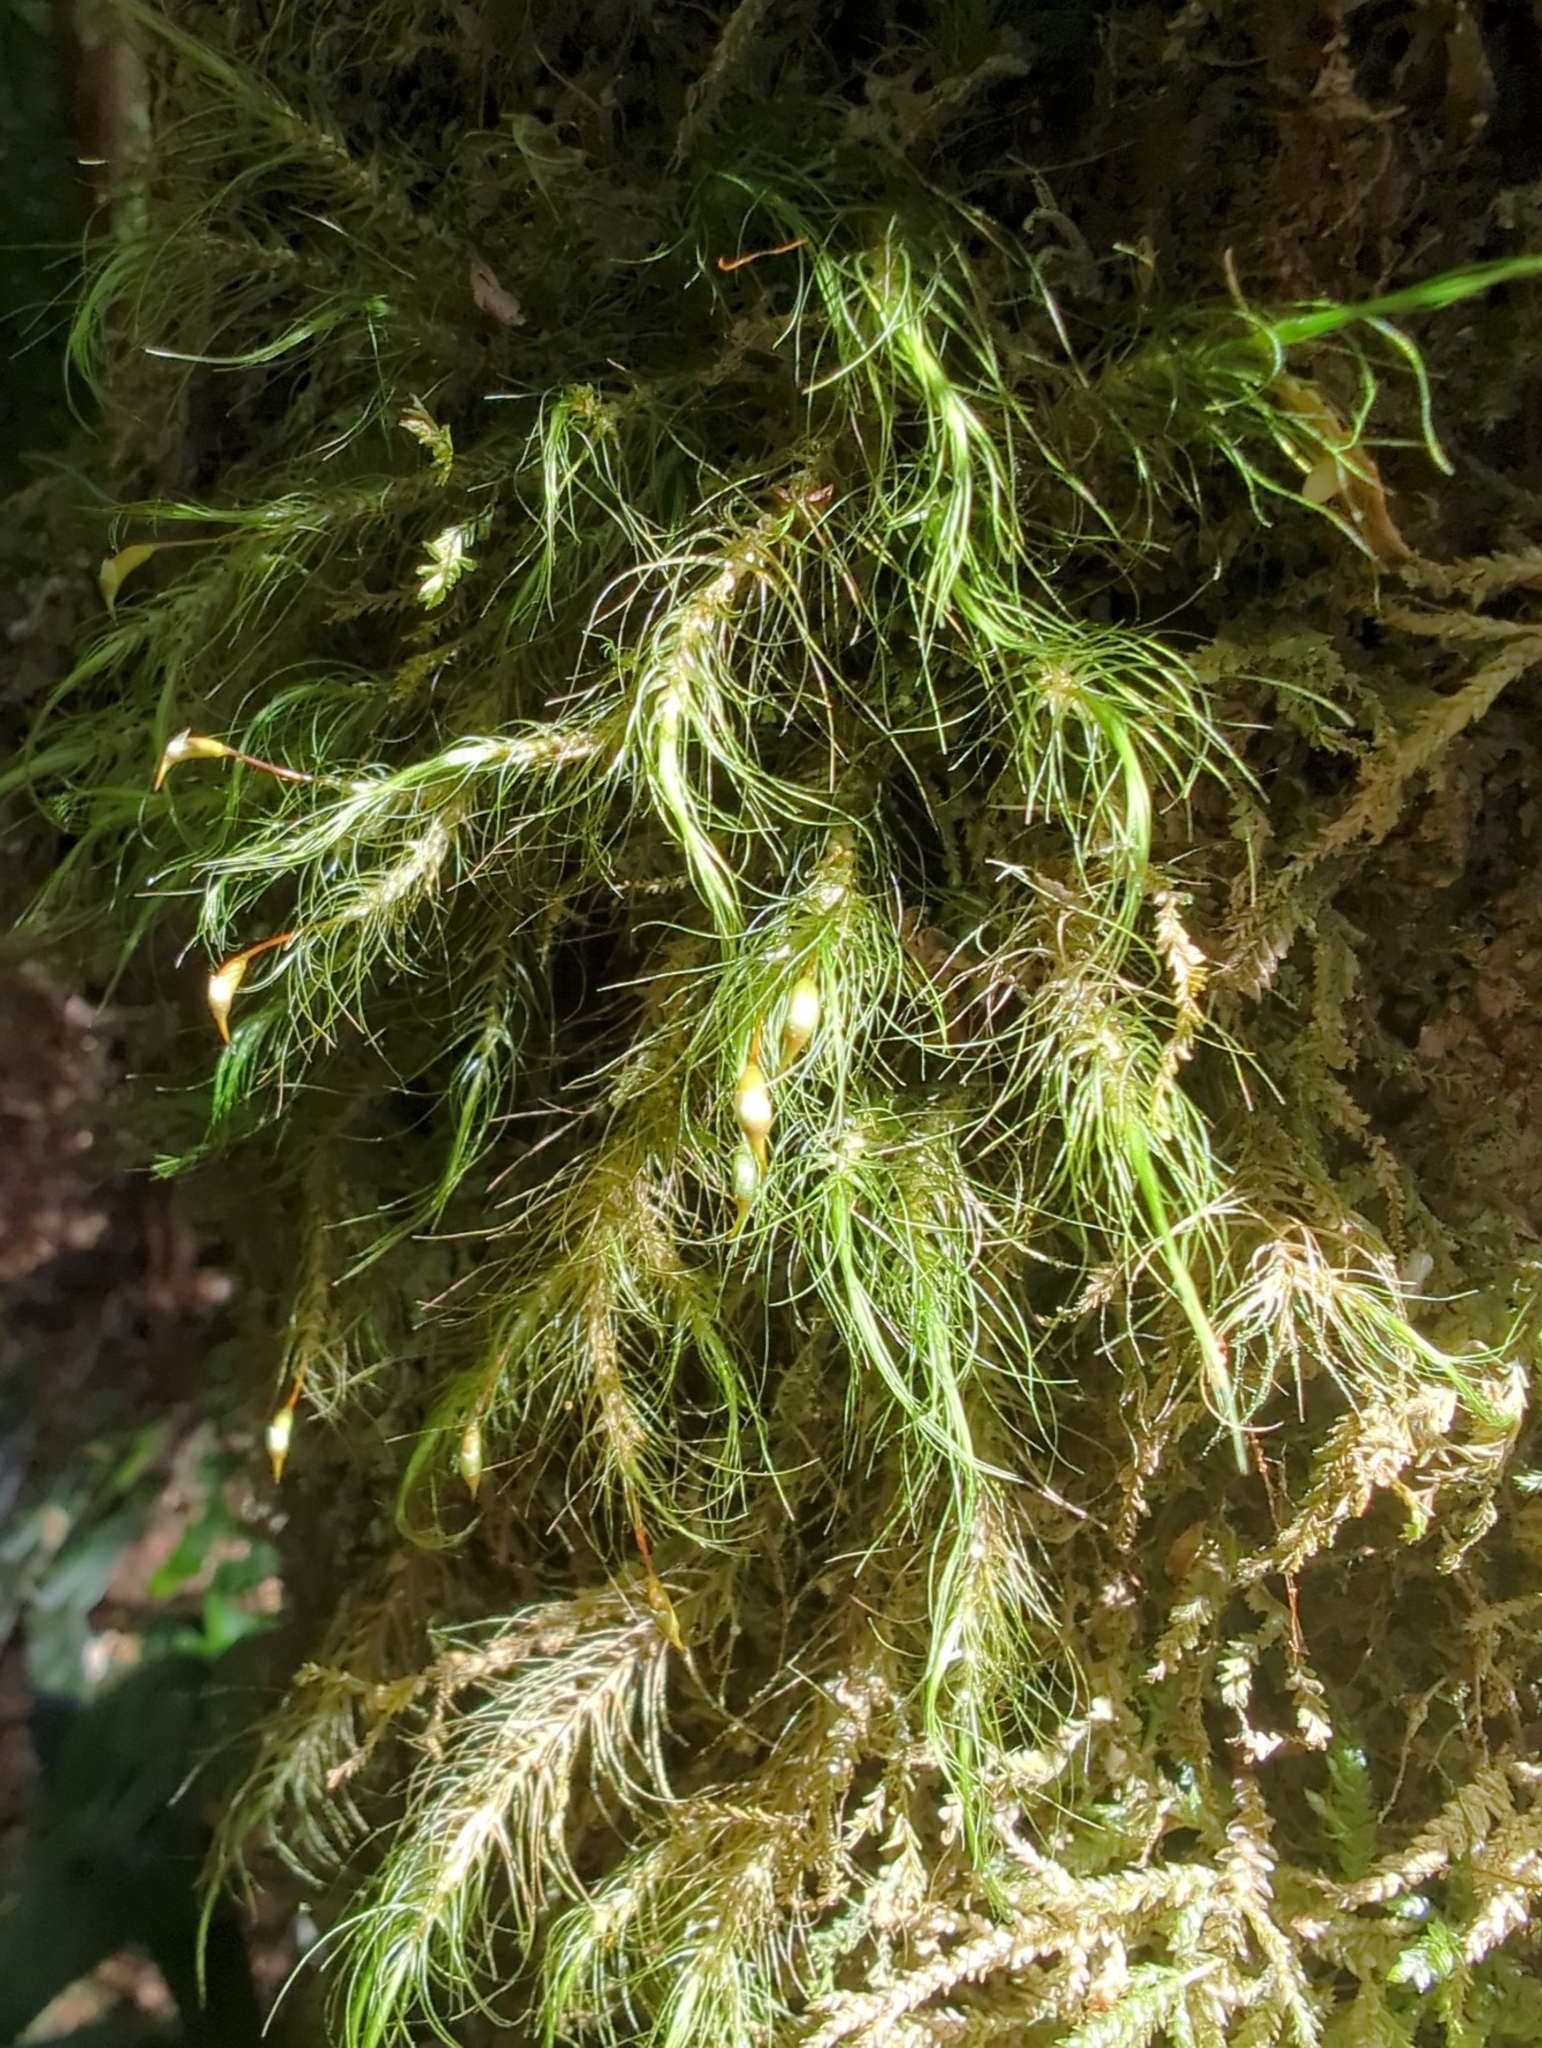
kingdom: Plantae
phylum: Bryophyta
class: Bryopsida
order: Dicranales
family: Dicranaceae
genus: Dicranoloma
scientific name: Dicranoloma menziesii
